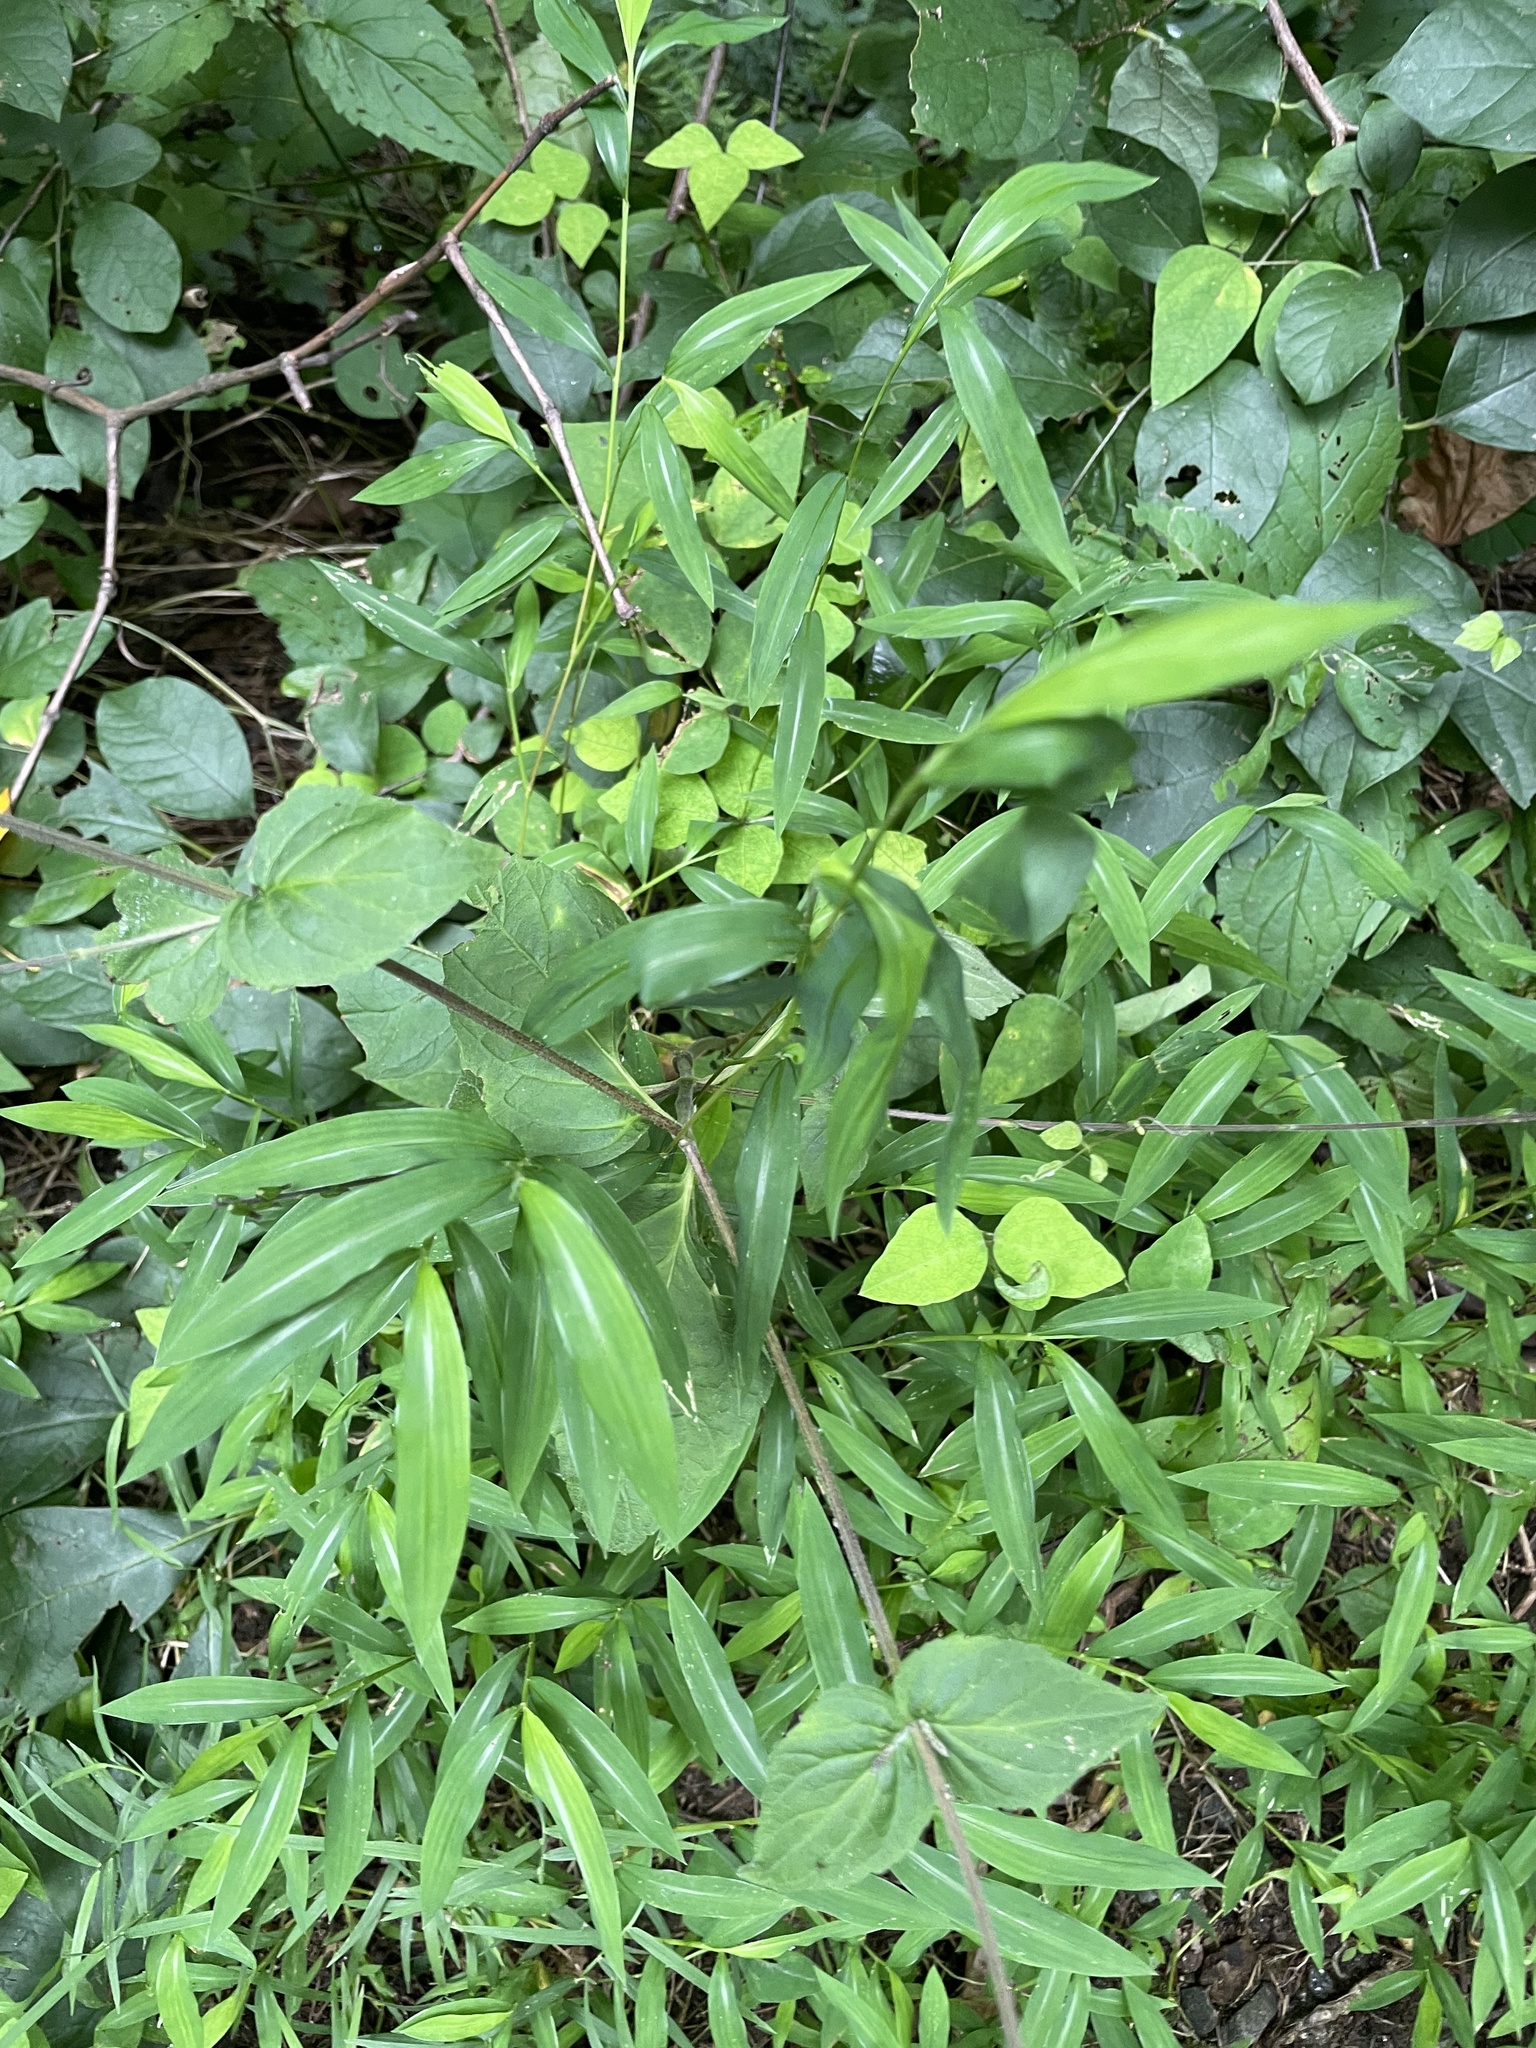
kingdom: Plantae
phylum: Tracheophyta
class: Magnoliopsida
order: Lamiales
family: Phrymaceae
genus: Phryma
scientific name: Phryma leptostachya
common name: American lopseed
